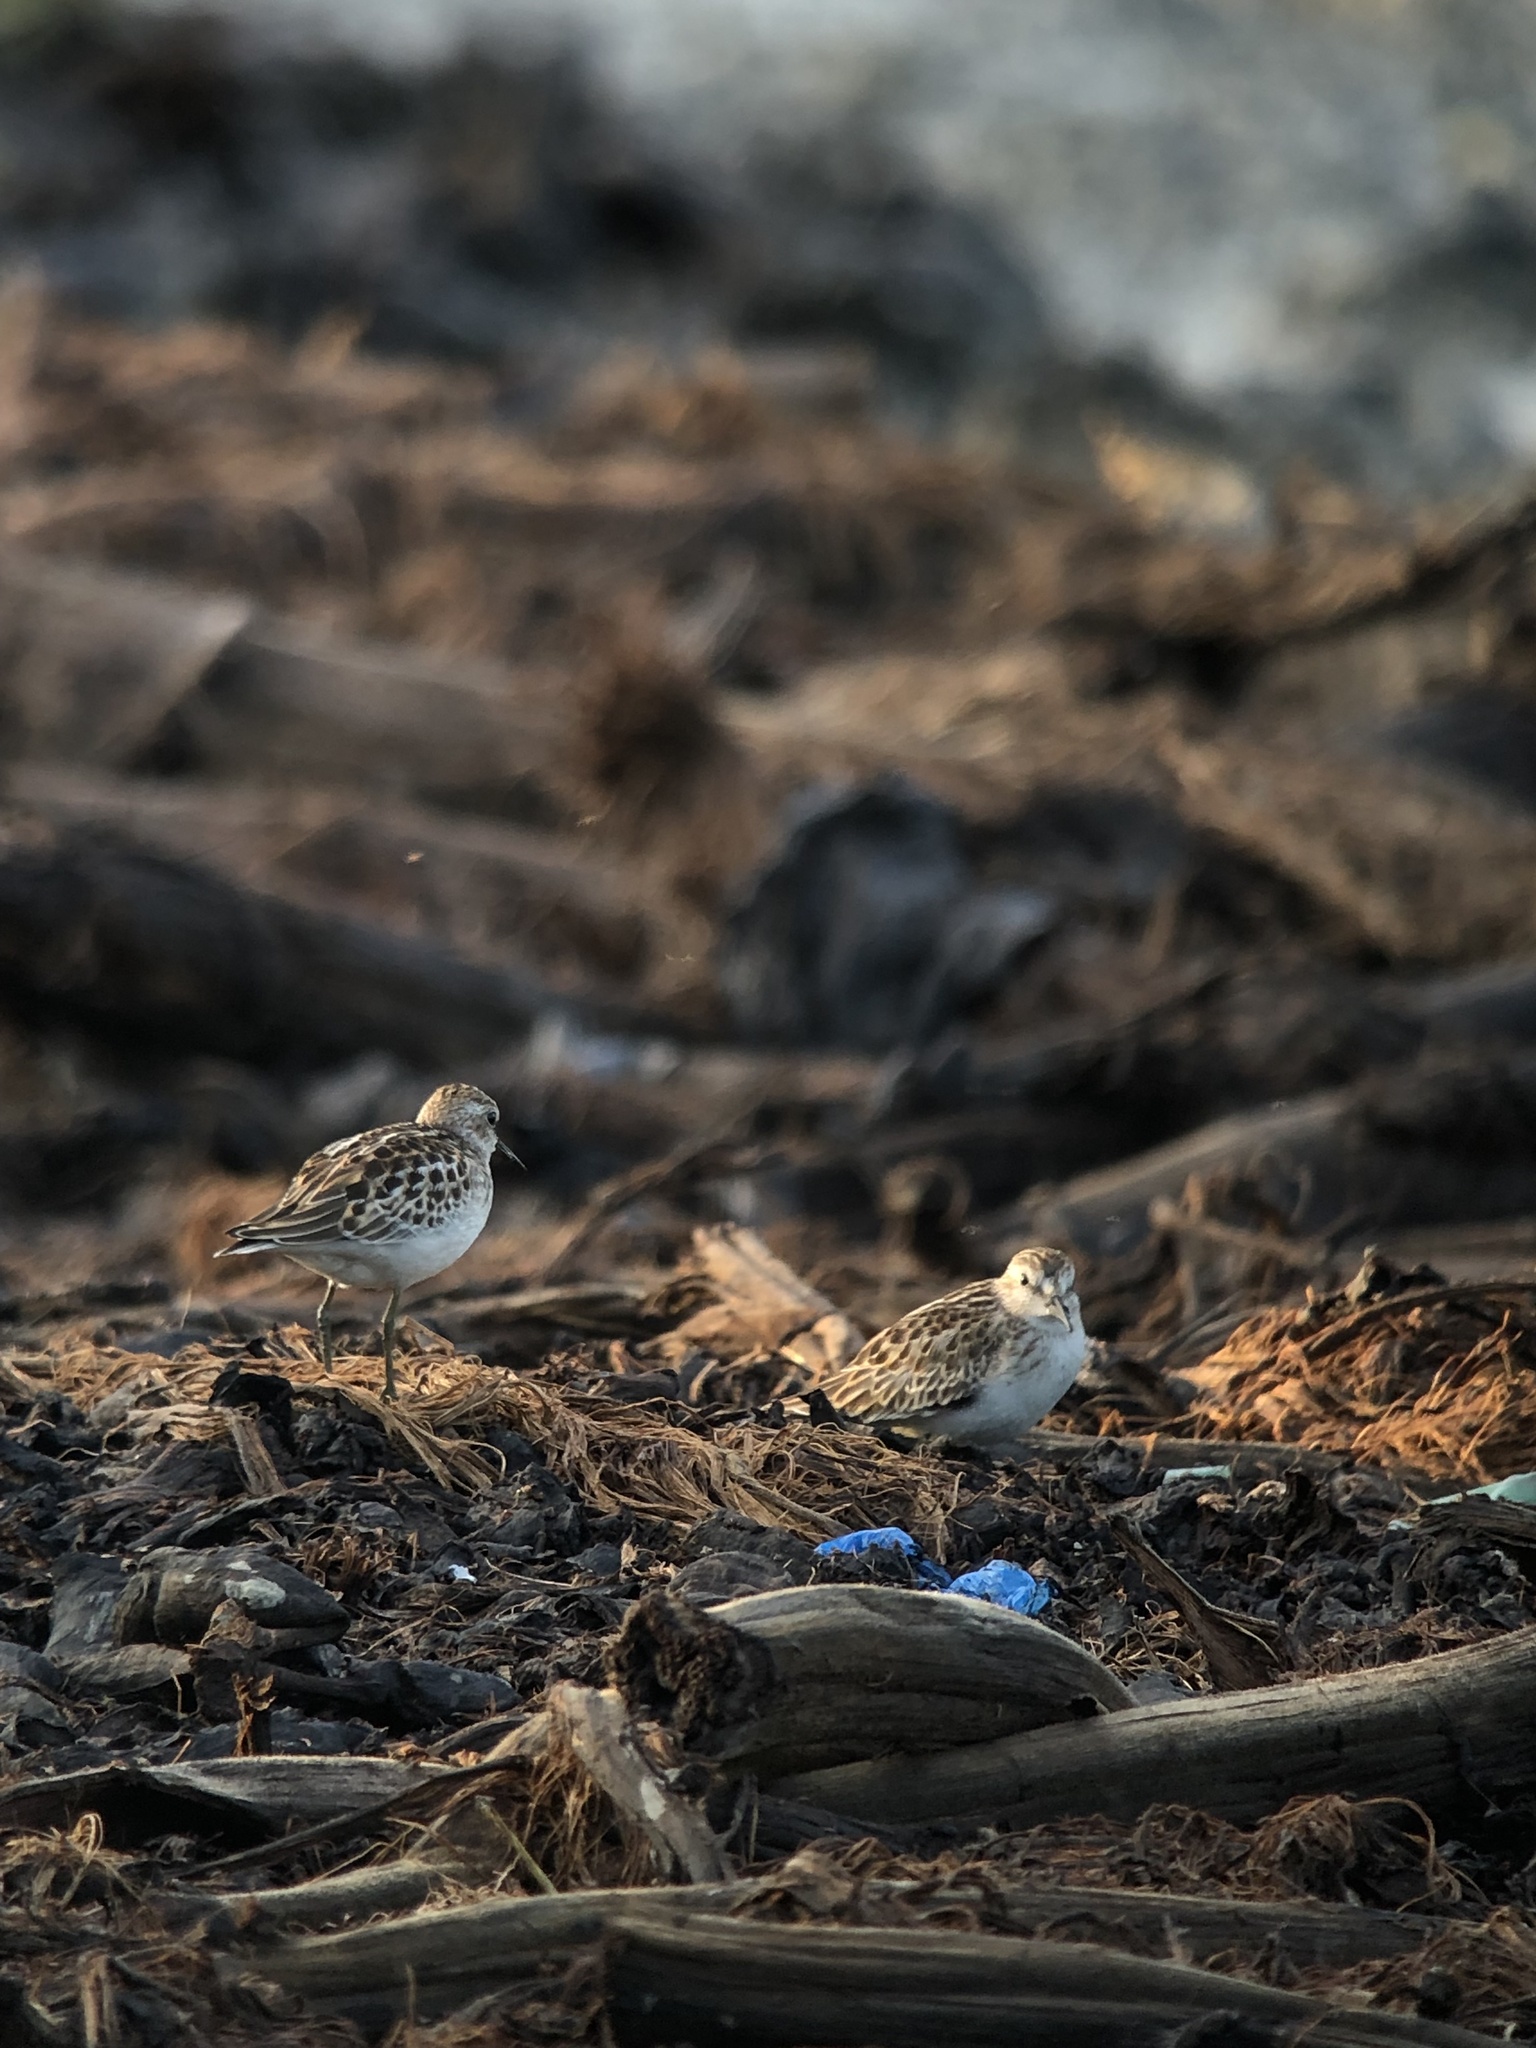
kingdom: Animalia
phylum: Chordata
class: Aves
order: Charadriiformes
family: Scolopacidae
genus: Calidris
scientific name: Calidris minutilla
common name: Least sandpiper
